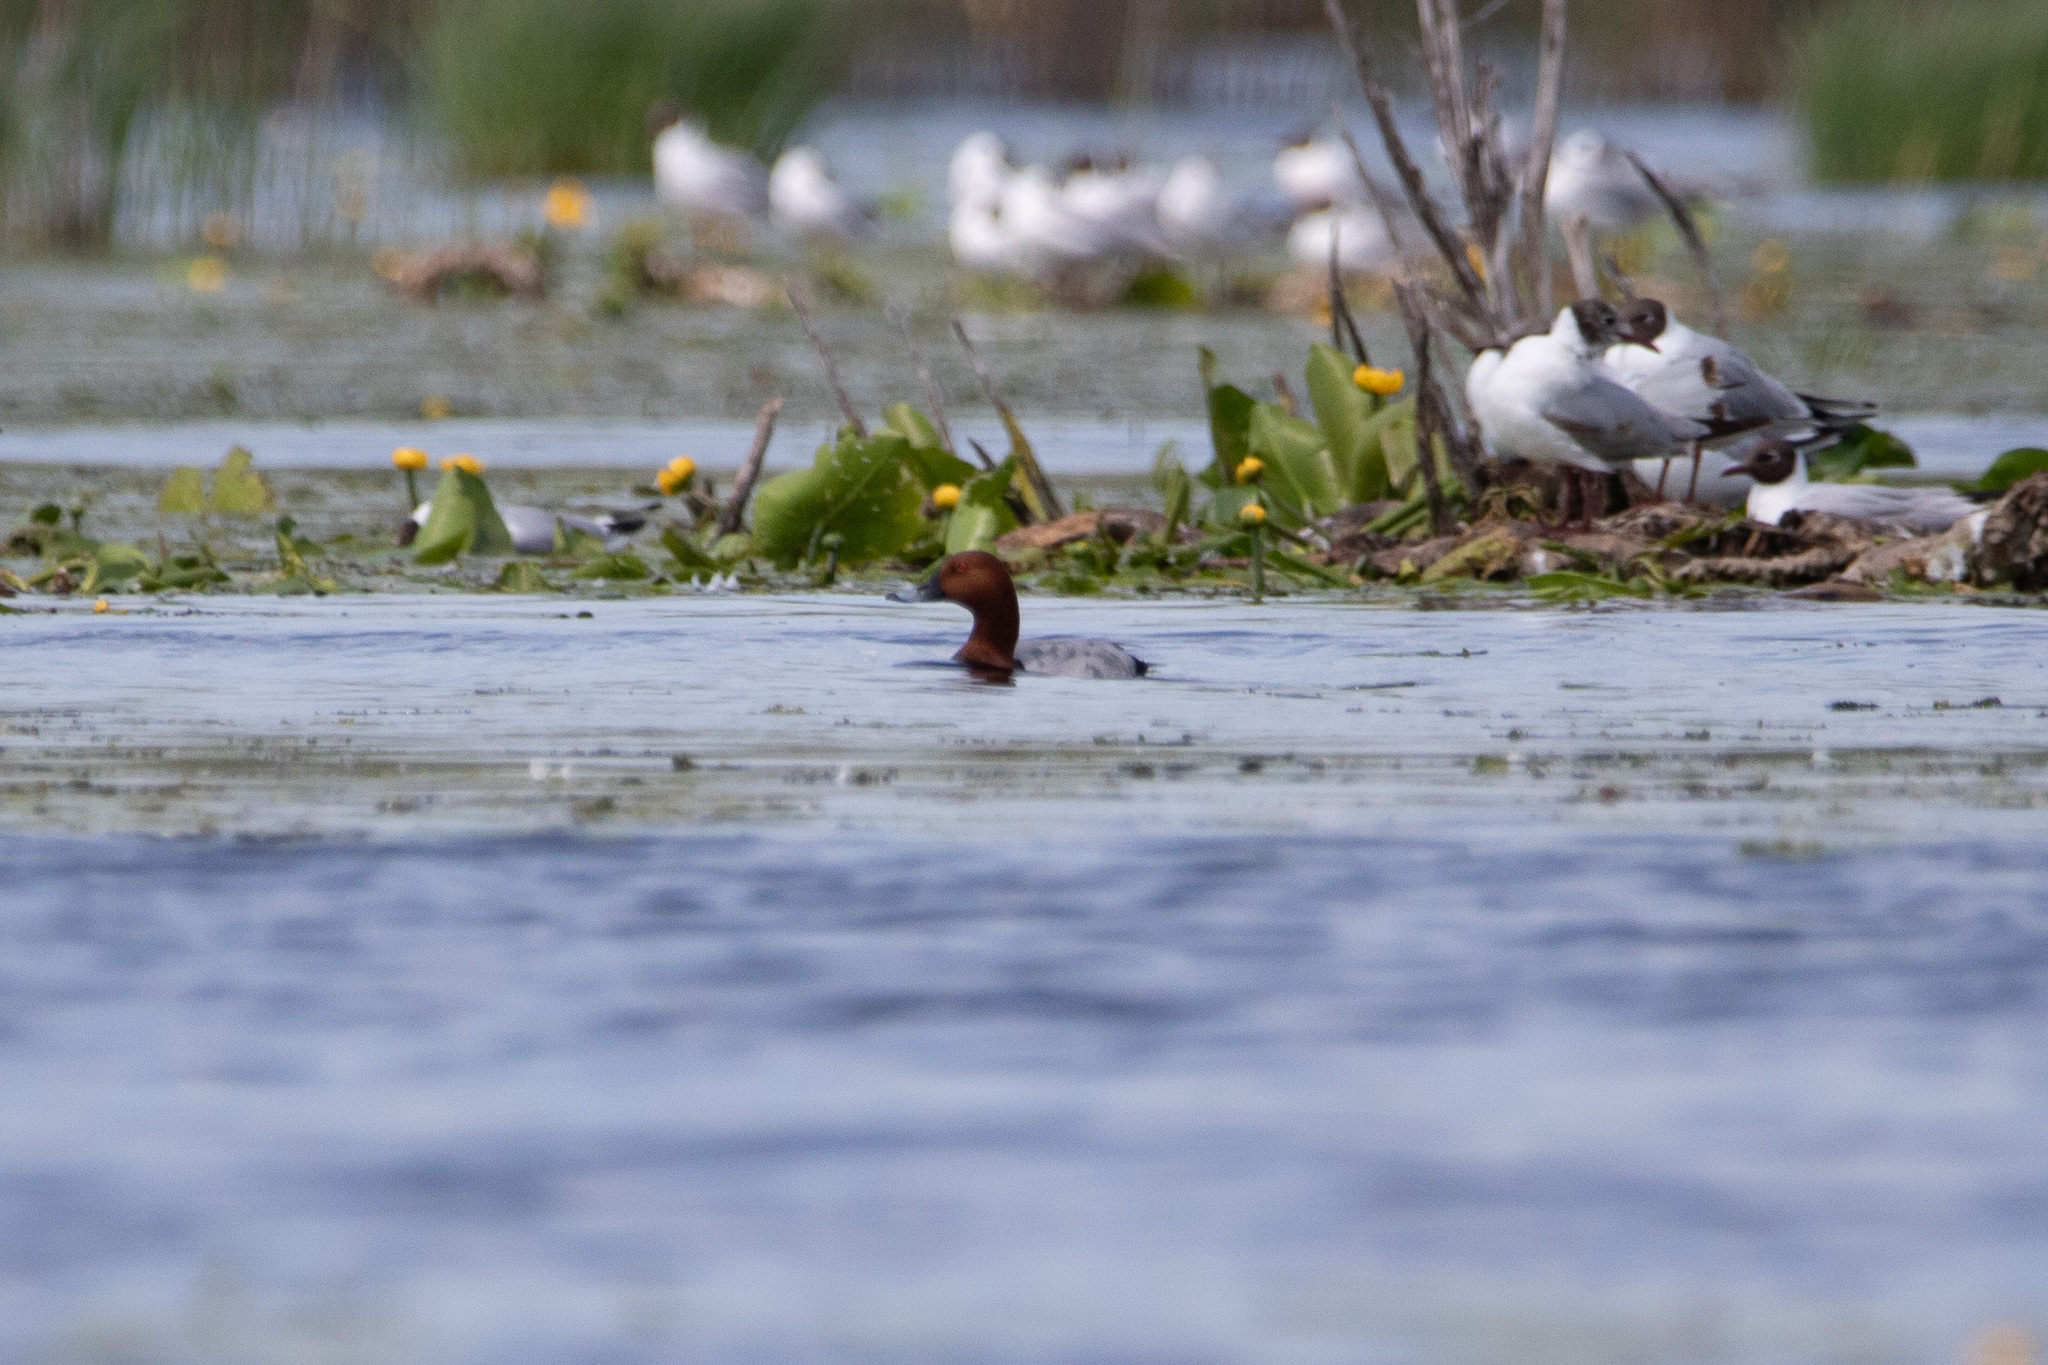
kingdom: Animalia
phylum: Chordata
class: Aves
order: Anseriformes
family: Anatidae
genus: Aythya
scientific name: Aythya ferina
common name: Common pochard
